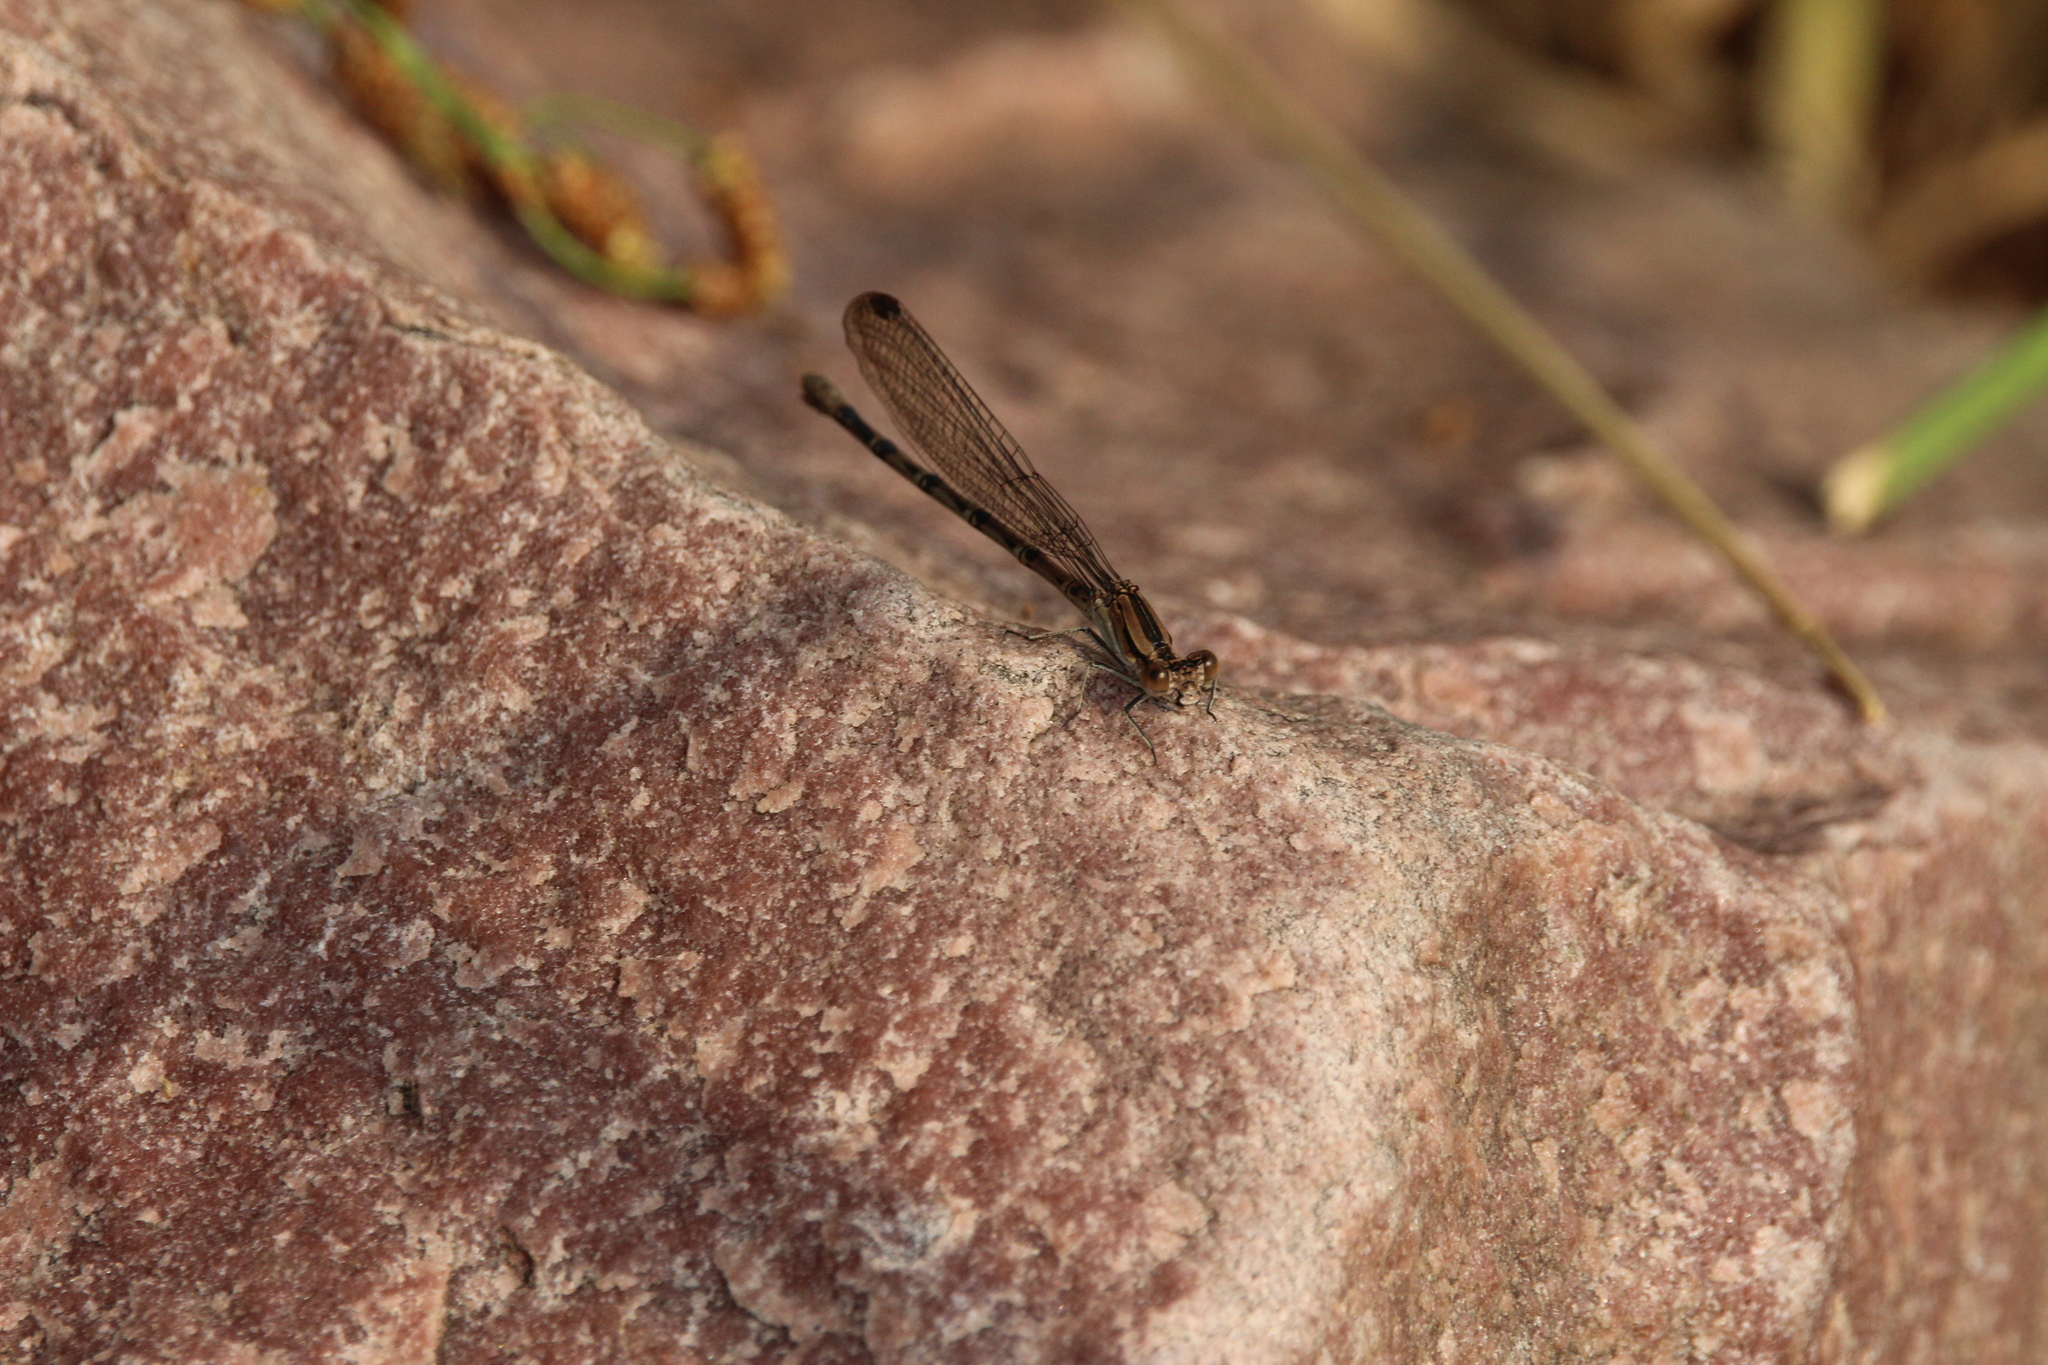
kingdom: Animalia
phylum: Arthropoda
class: Insecta
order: Odonata
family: Coenagrionidae
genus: Argia
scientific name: Argia funebris
